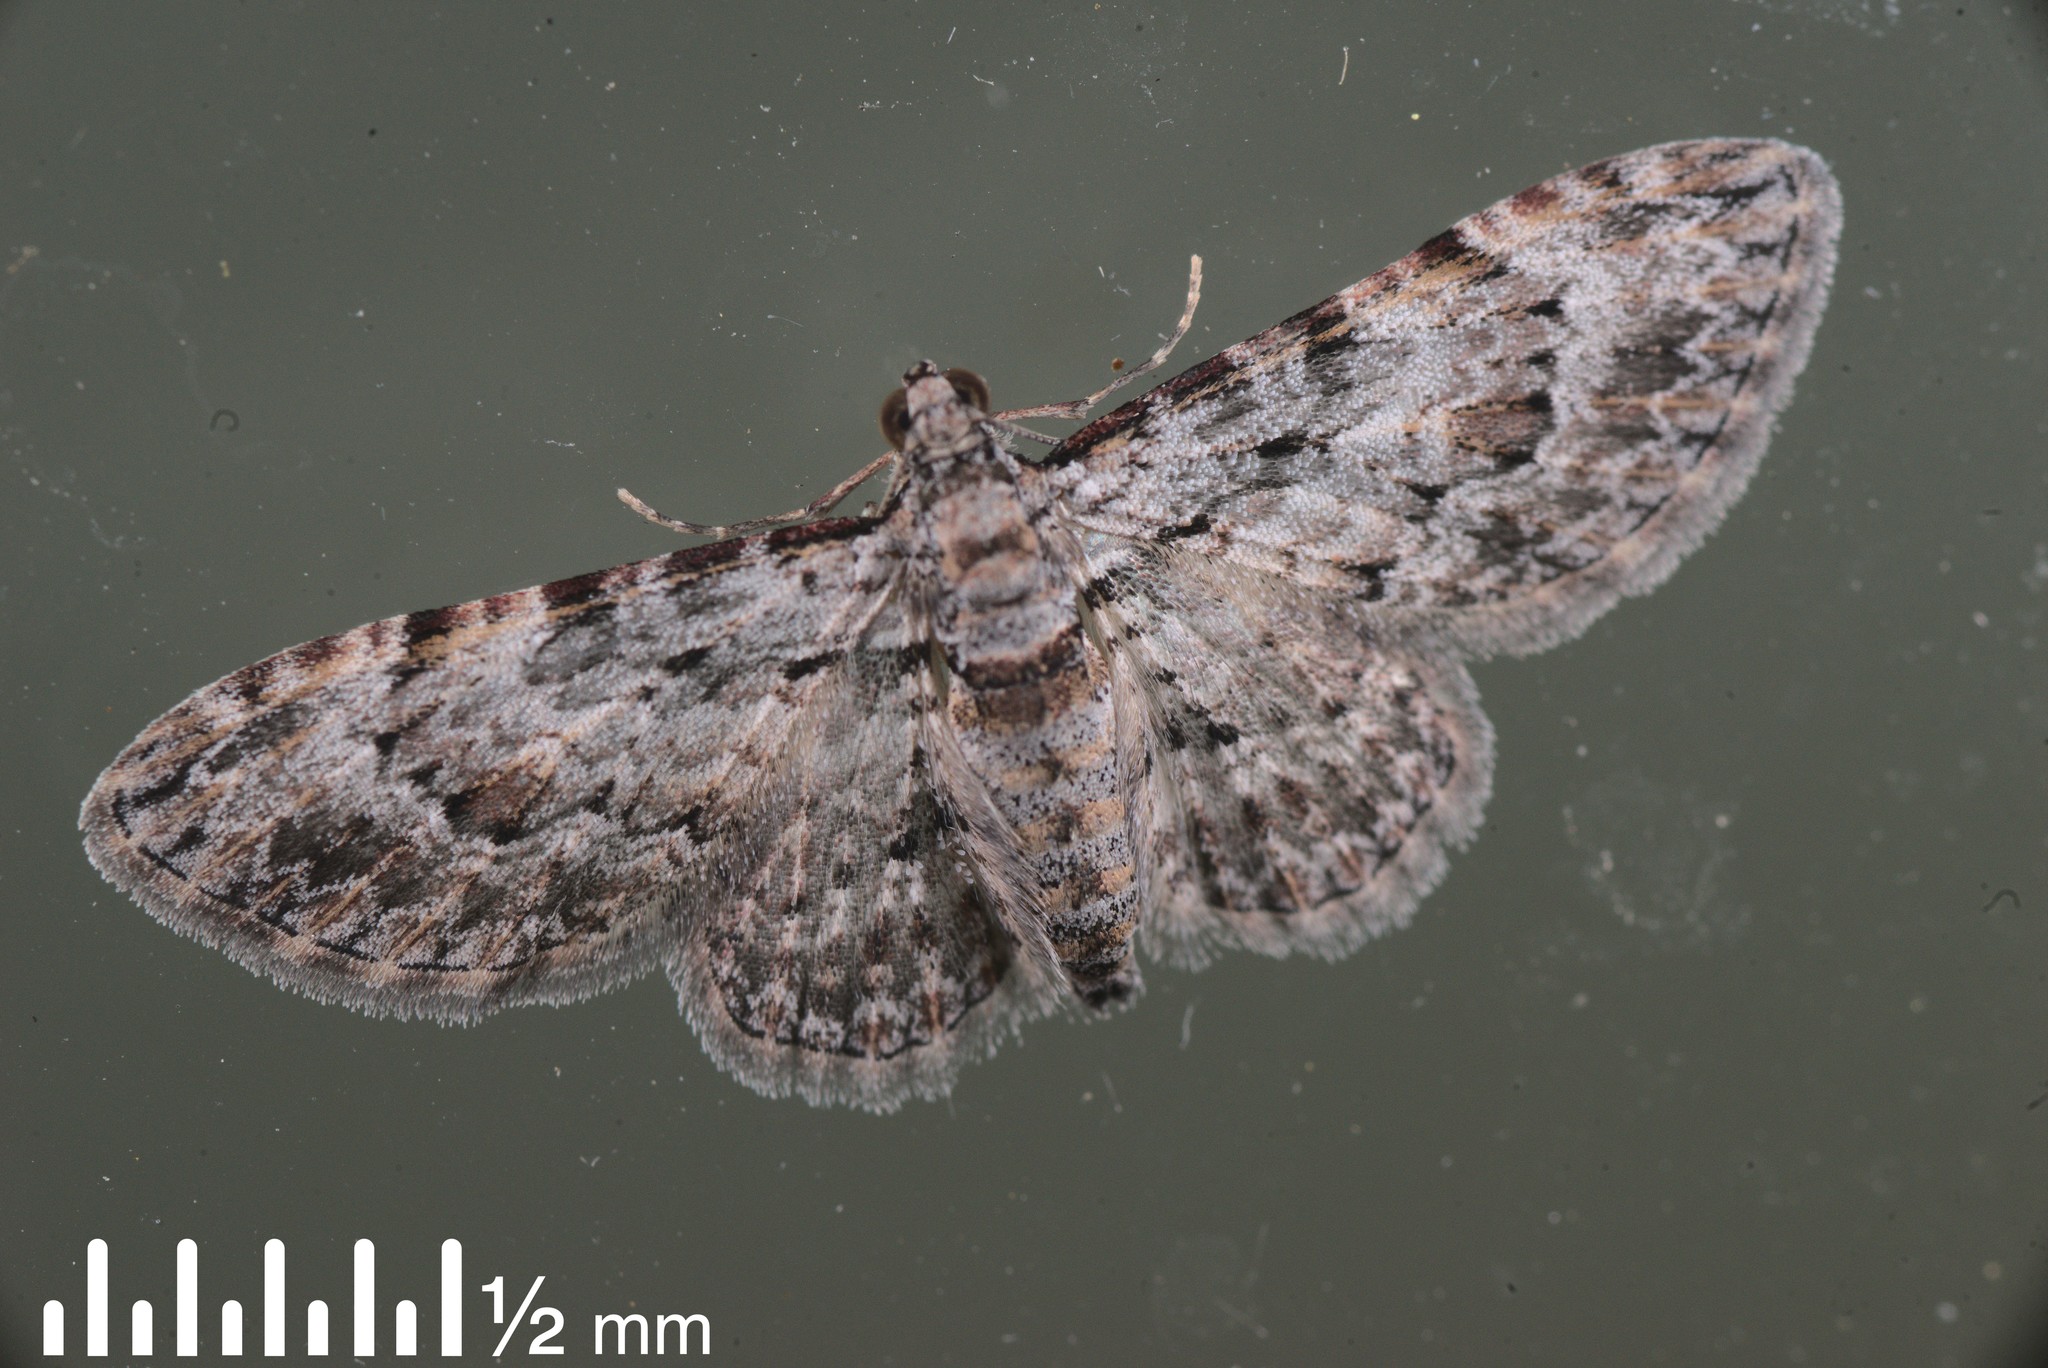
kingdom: Animalia
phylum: Arthropoda
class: Insecta
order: Lepidoptera
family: Geometridae
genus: Chloroclystis
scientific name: Chloroclystis insigillata
